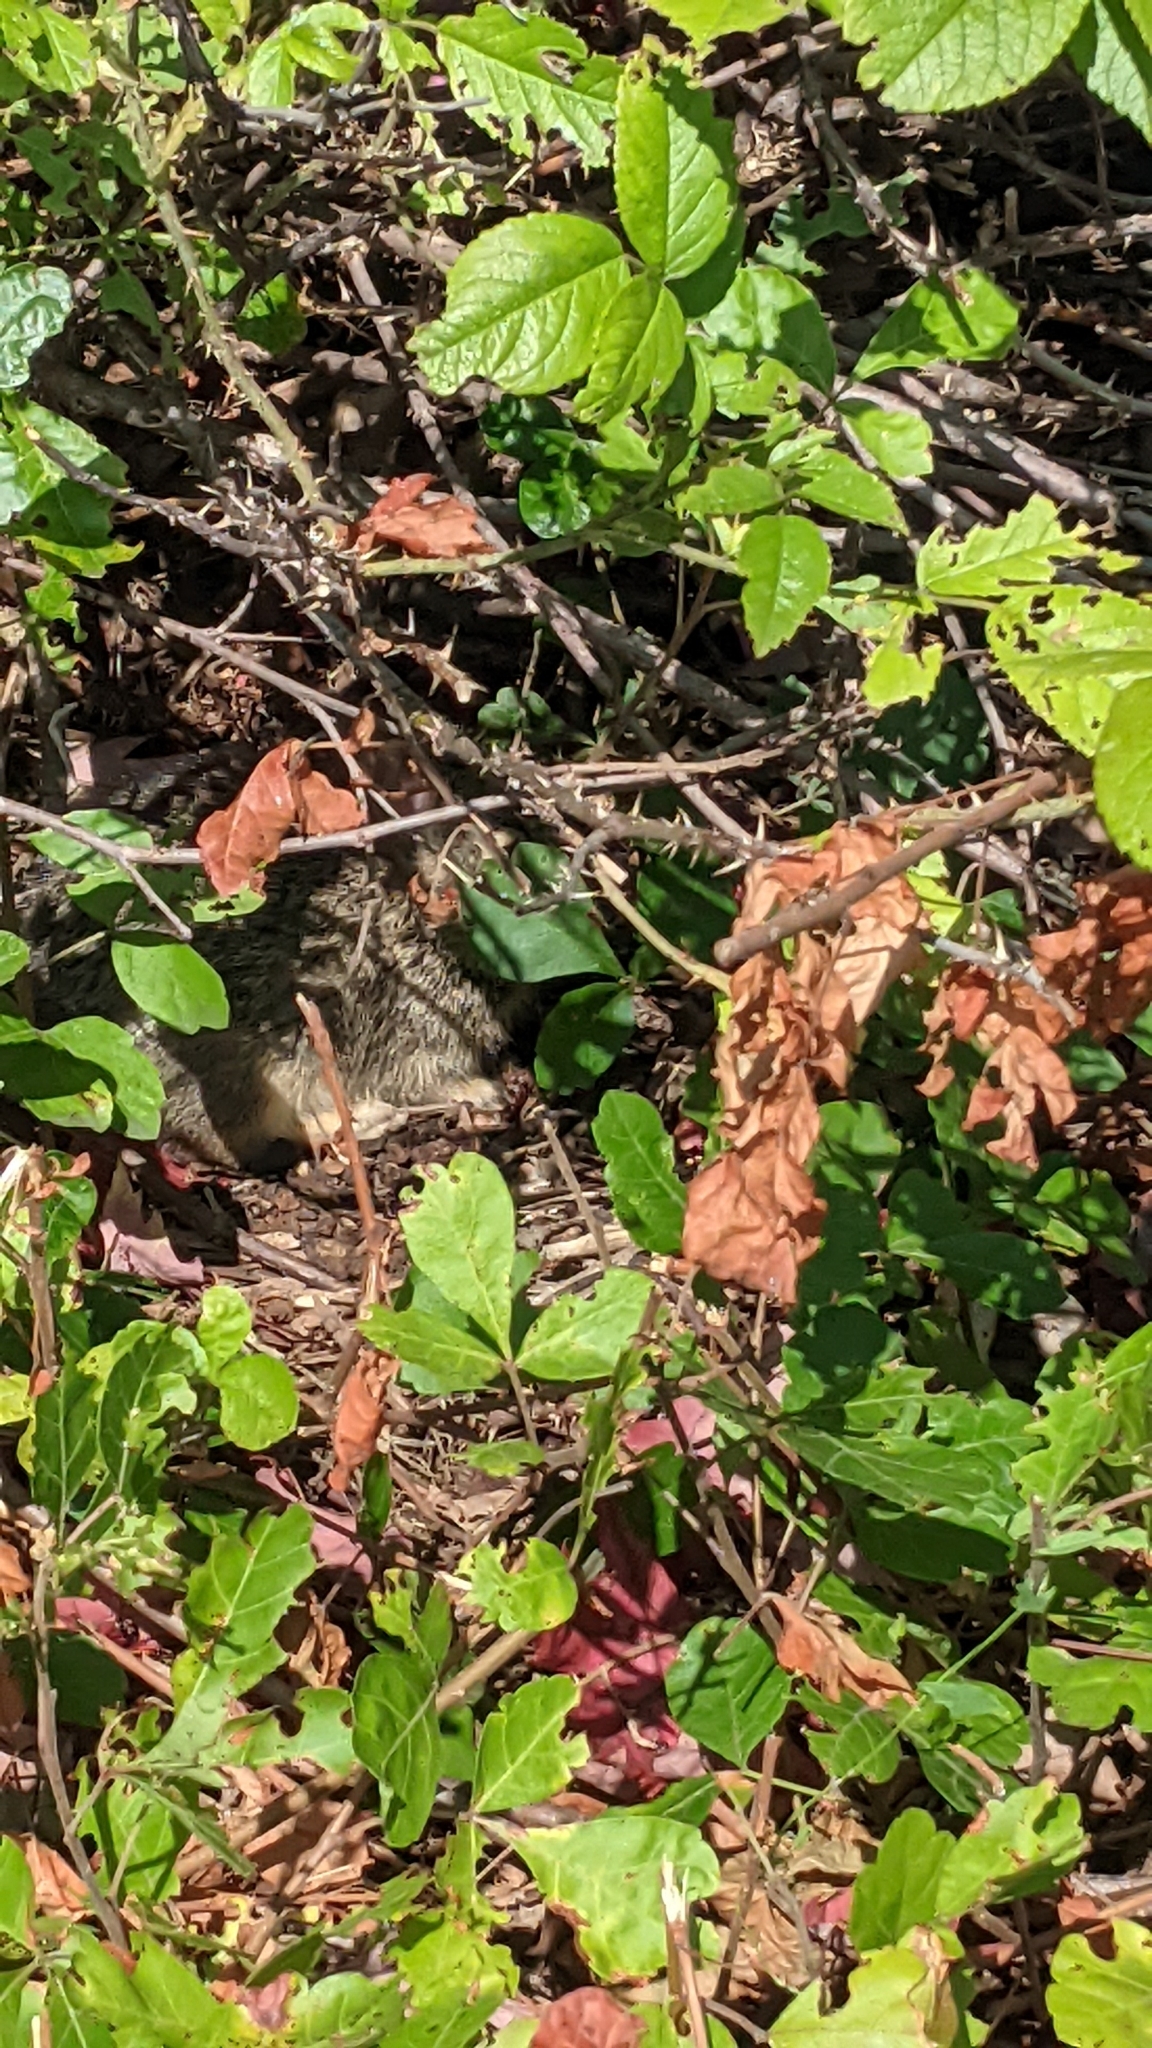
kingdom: Animalia
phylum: Chordata
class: Mammalia
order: Lagomorpha
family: Leporidae
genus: Sylvilagus
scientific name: Sylvilagus floridanus
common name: Eastern cottontail
